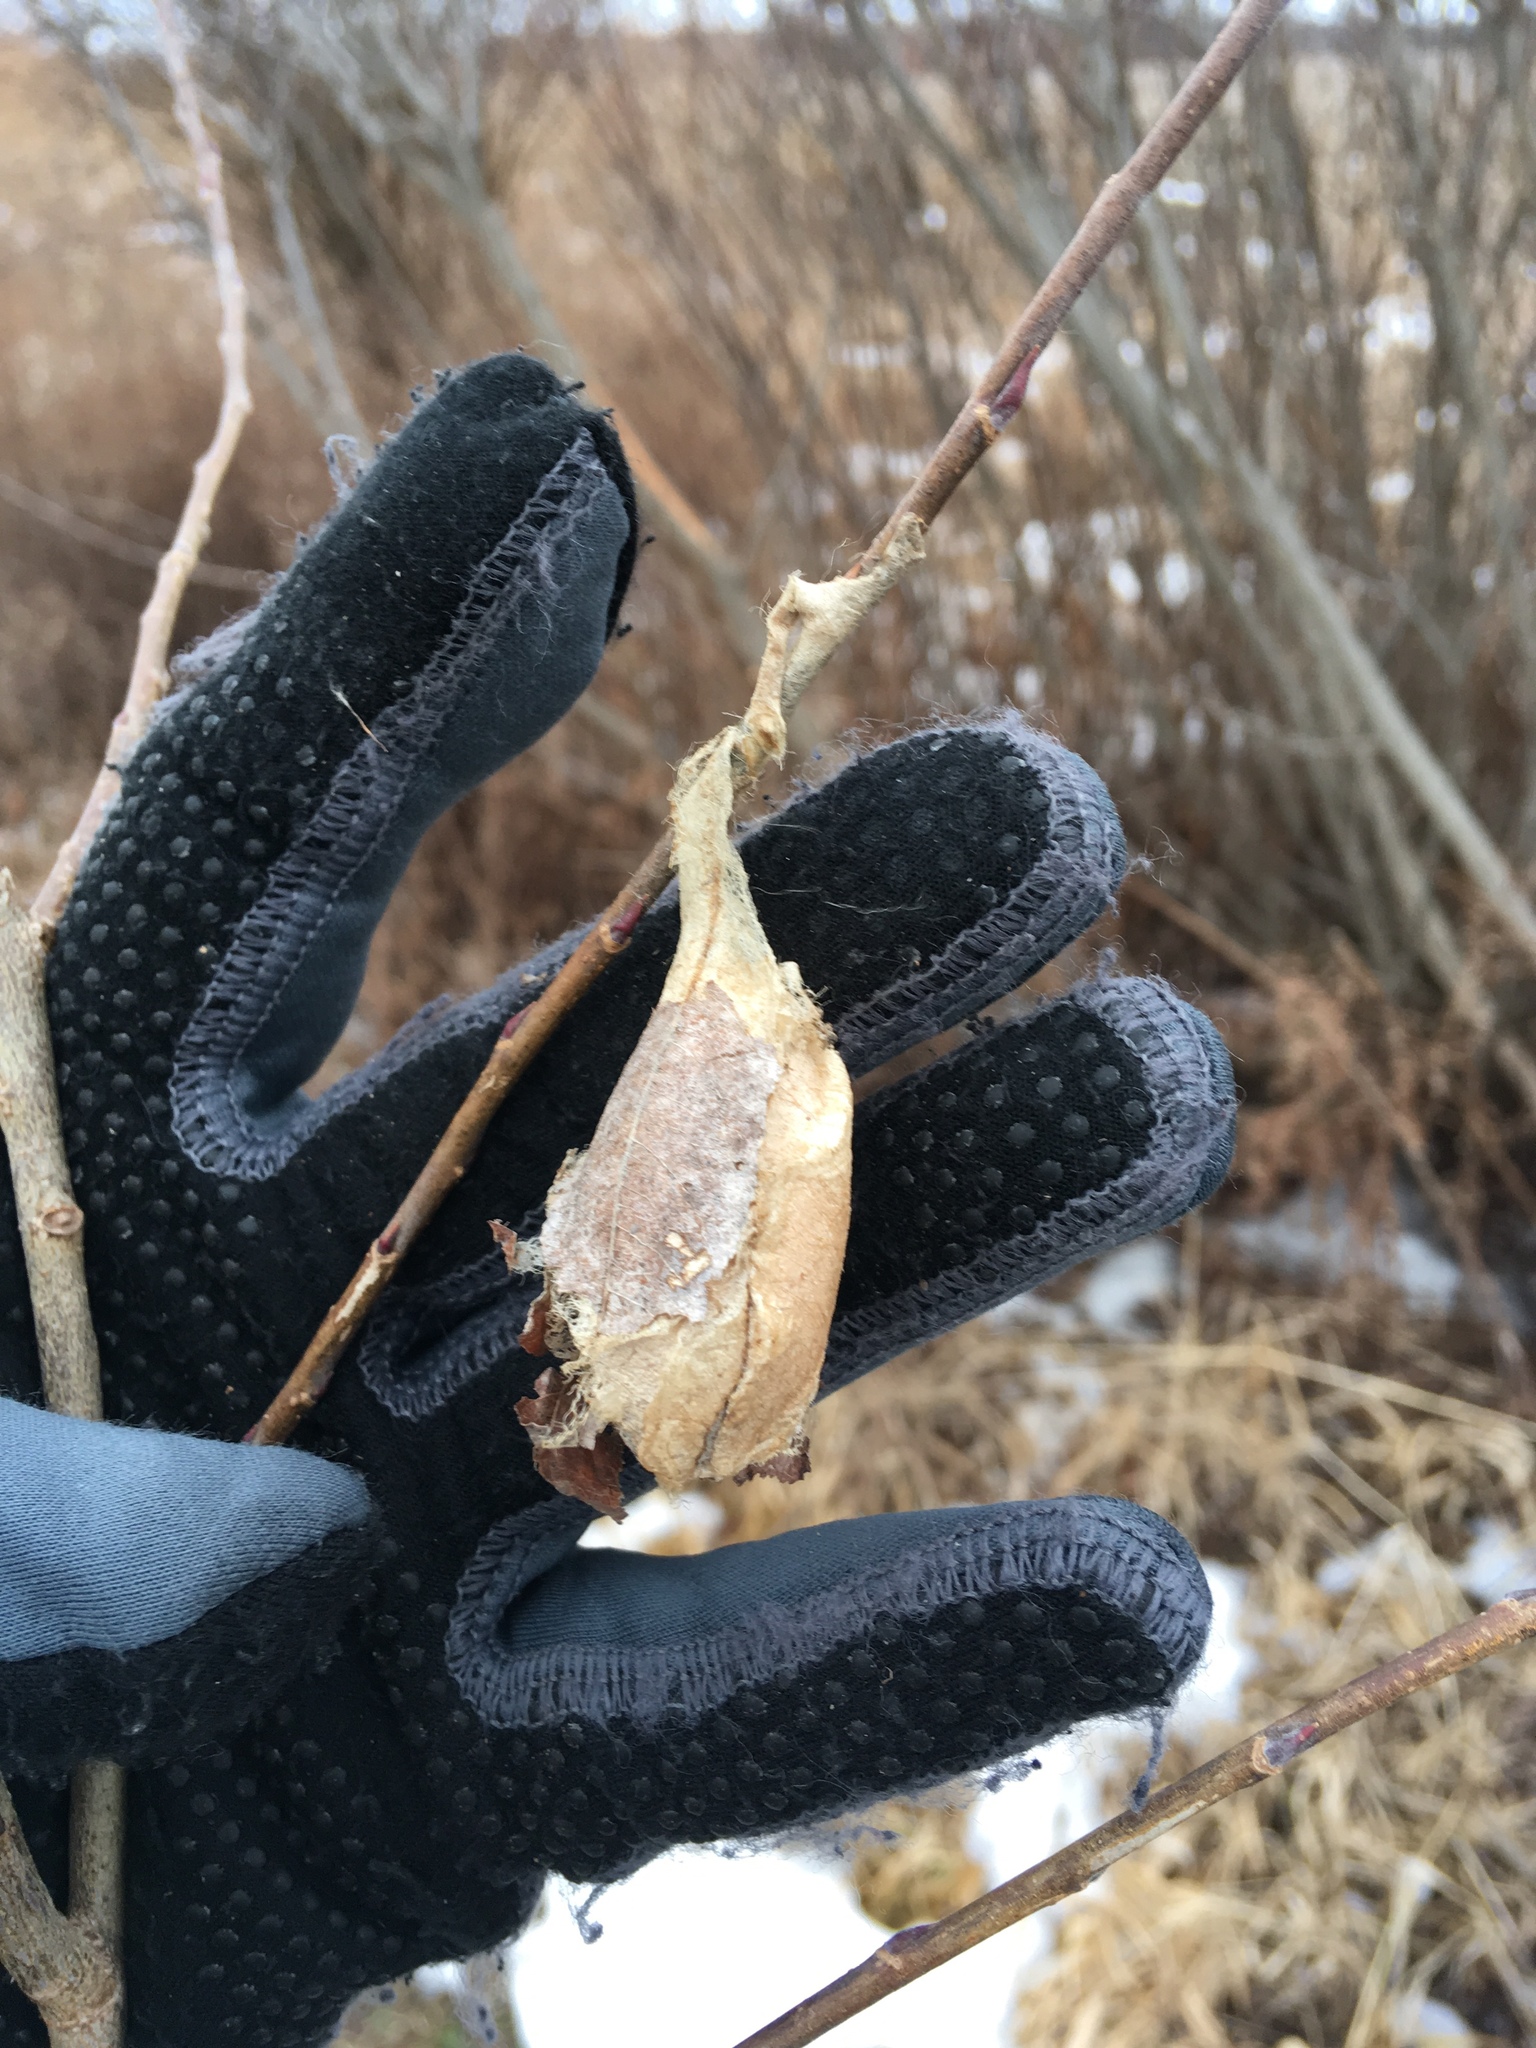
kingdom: Animalia
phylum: Arthropoda
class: Insecta
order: Lepidoptera
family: Saturniidae
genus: Antheraea
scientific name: Antheraea polyphemus
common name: Polyphemus moth
